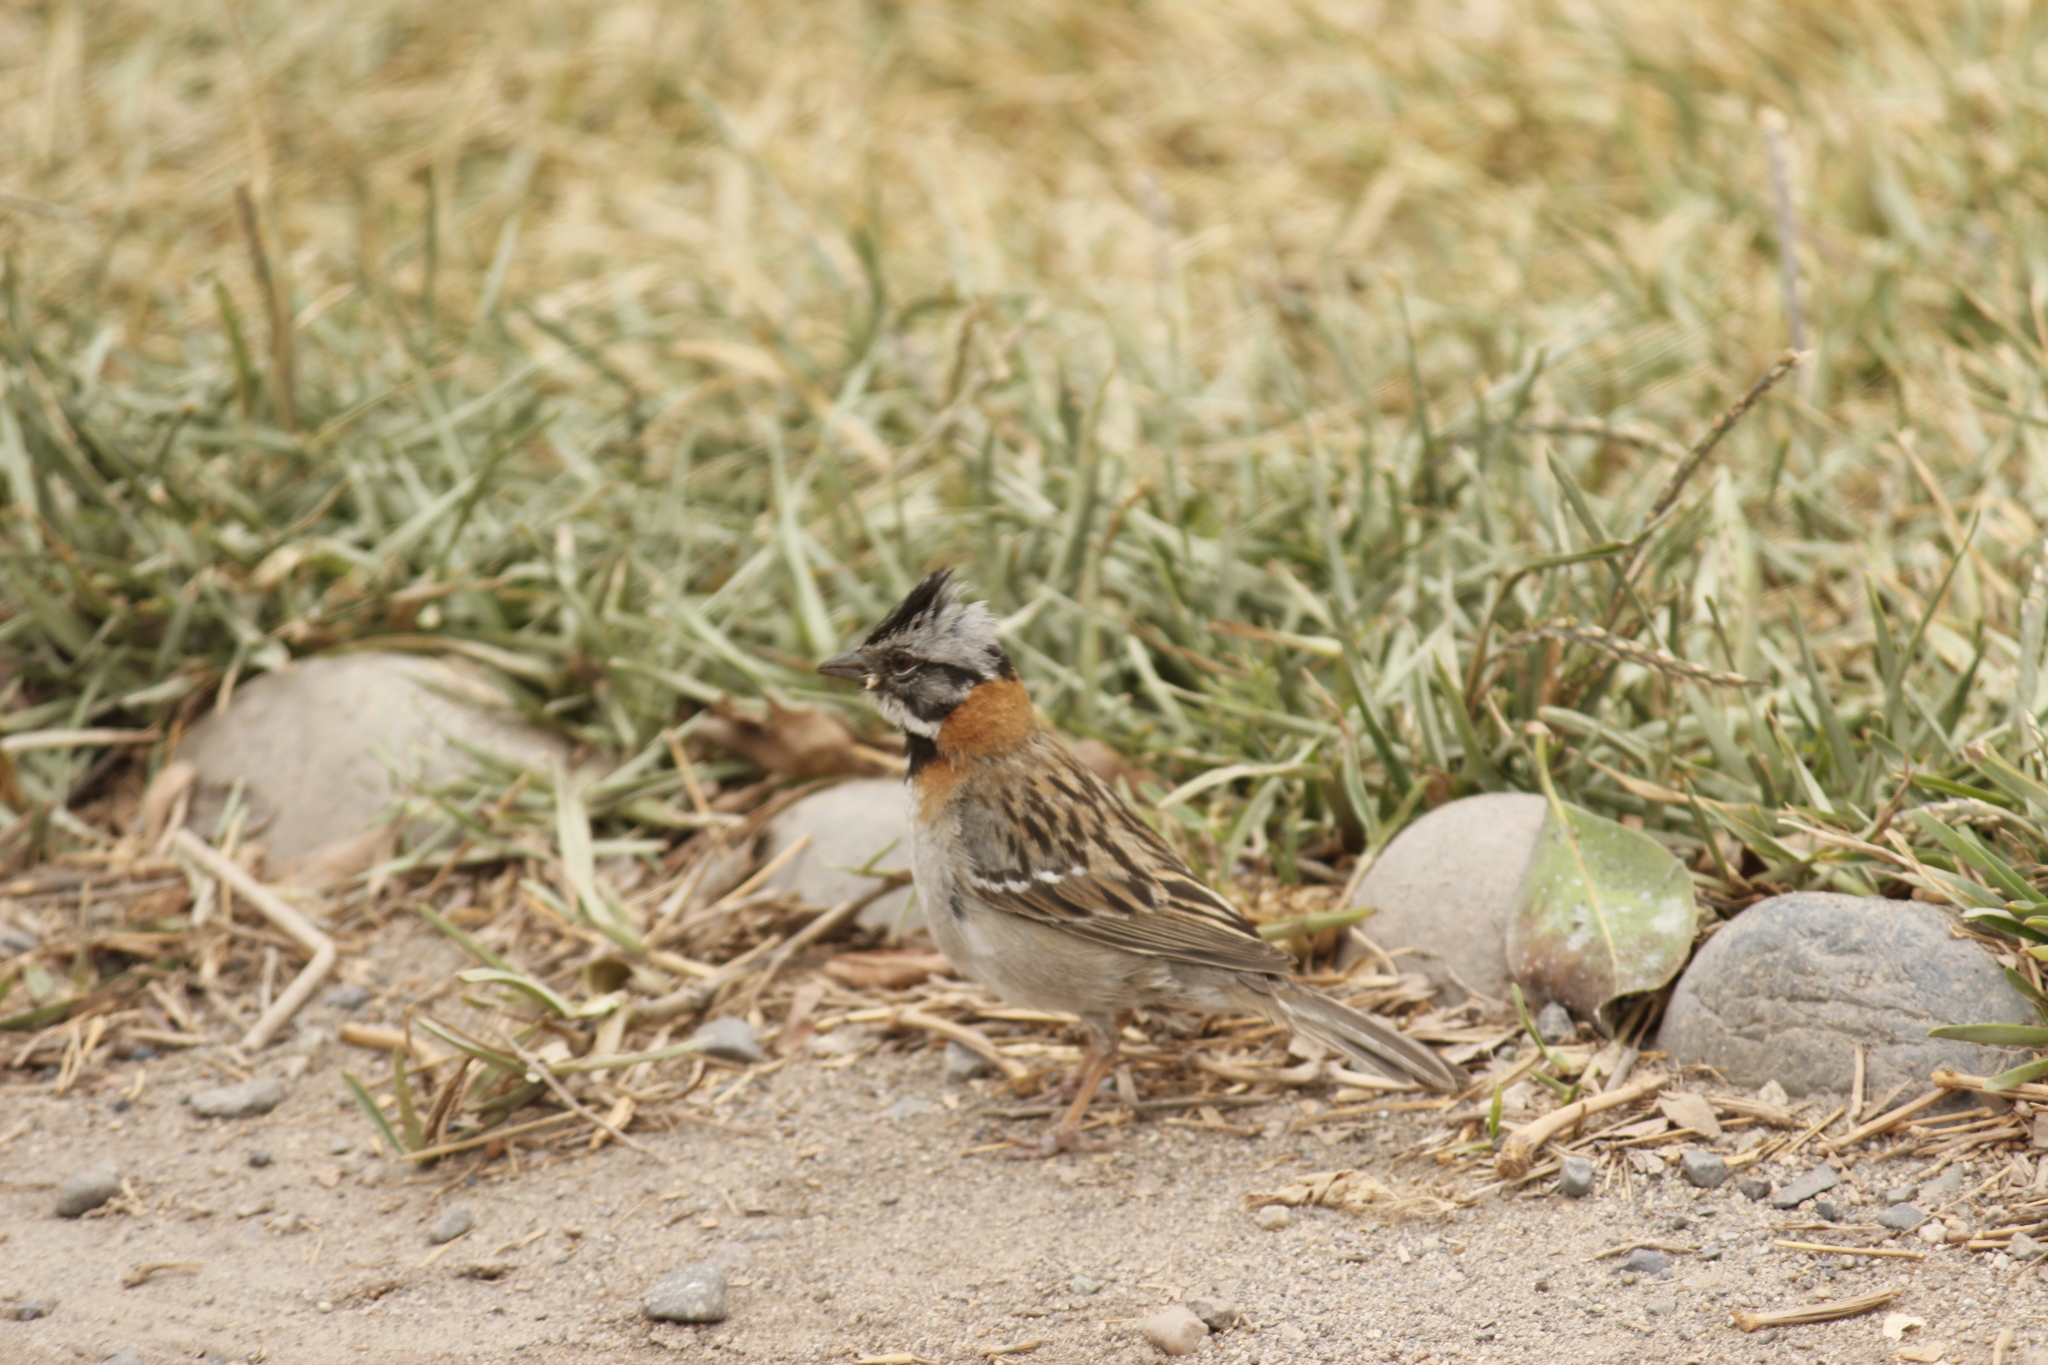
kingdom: Animalia
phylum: Chordata
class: Aves
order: Passeriformes
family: Passerellidae
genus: Zonotrichia
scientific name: Zonotrichia capensis
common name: Rufous-collared sparrow
